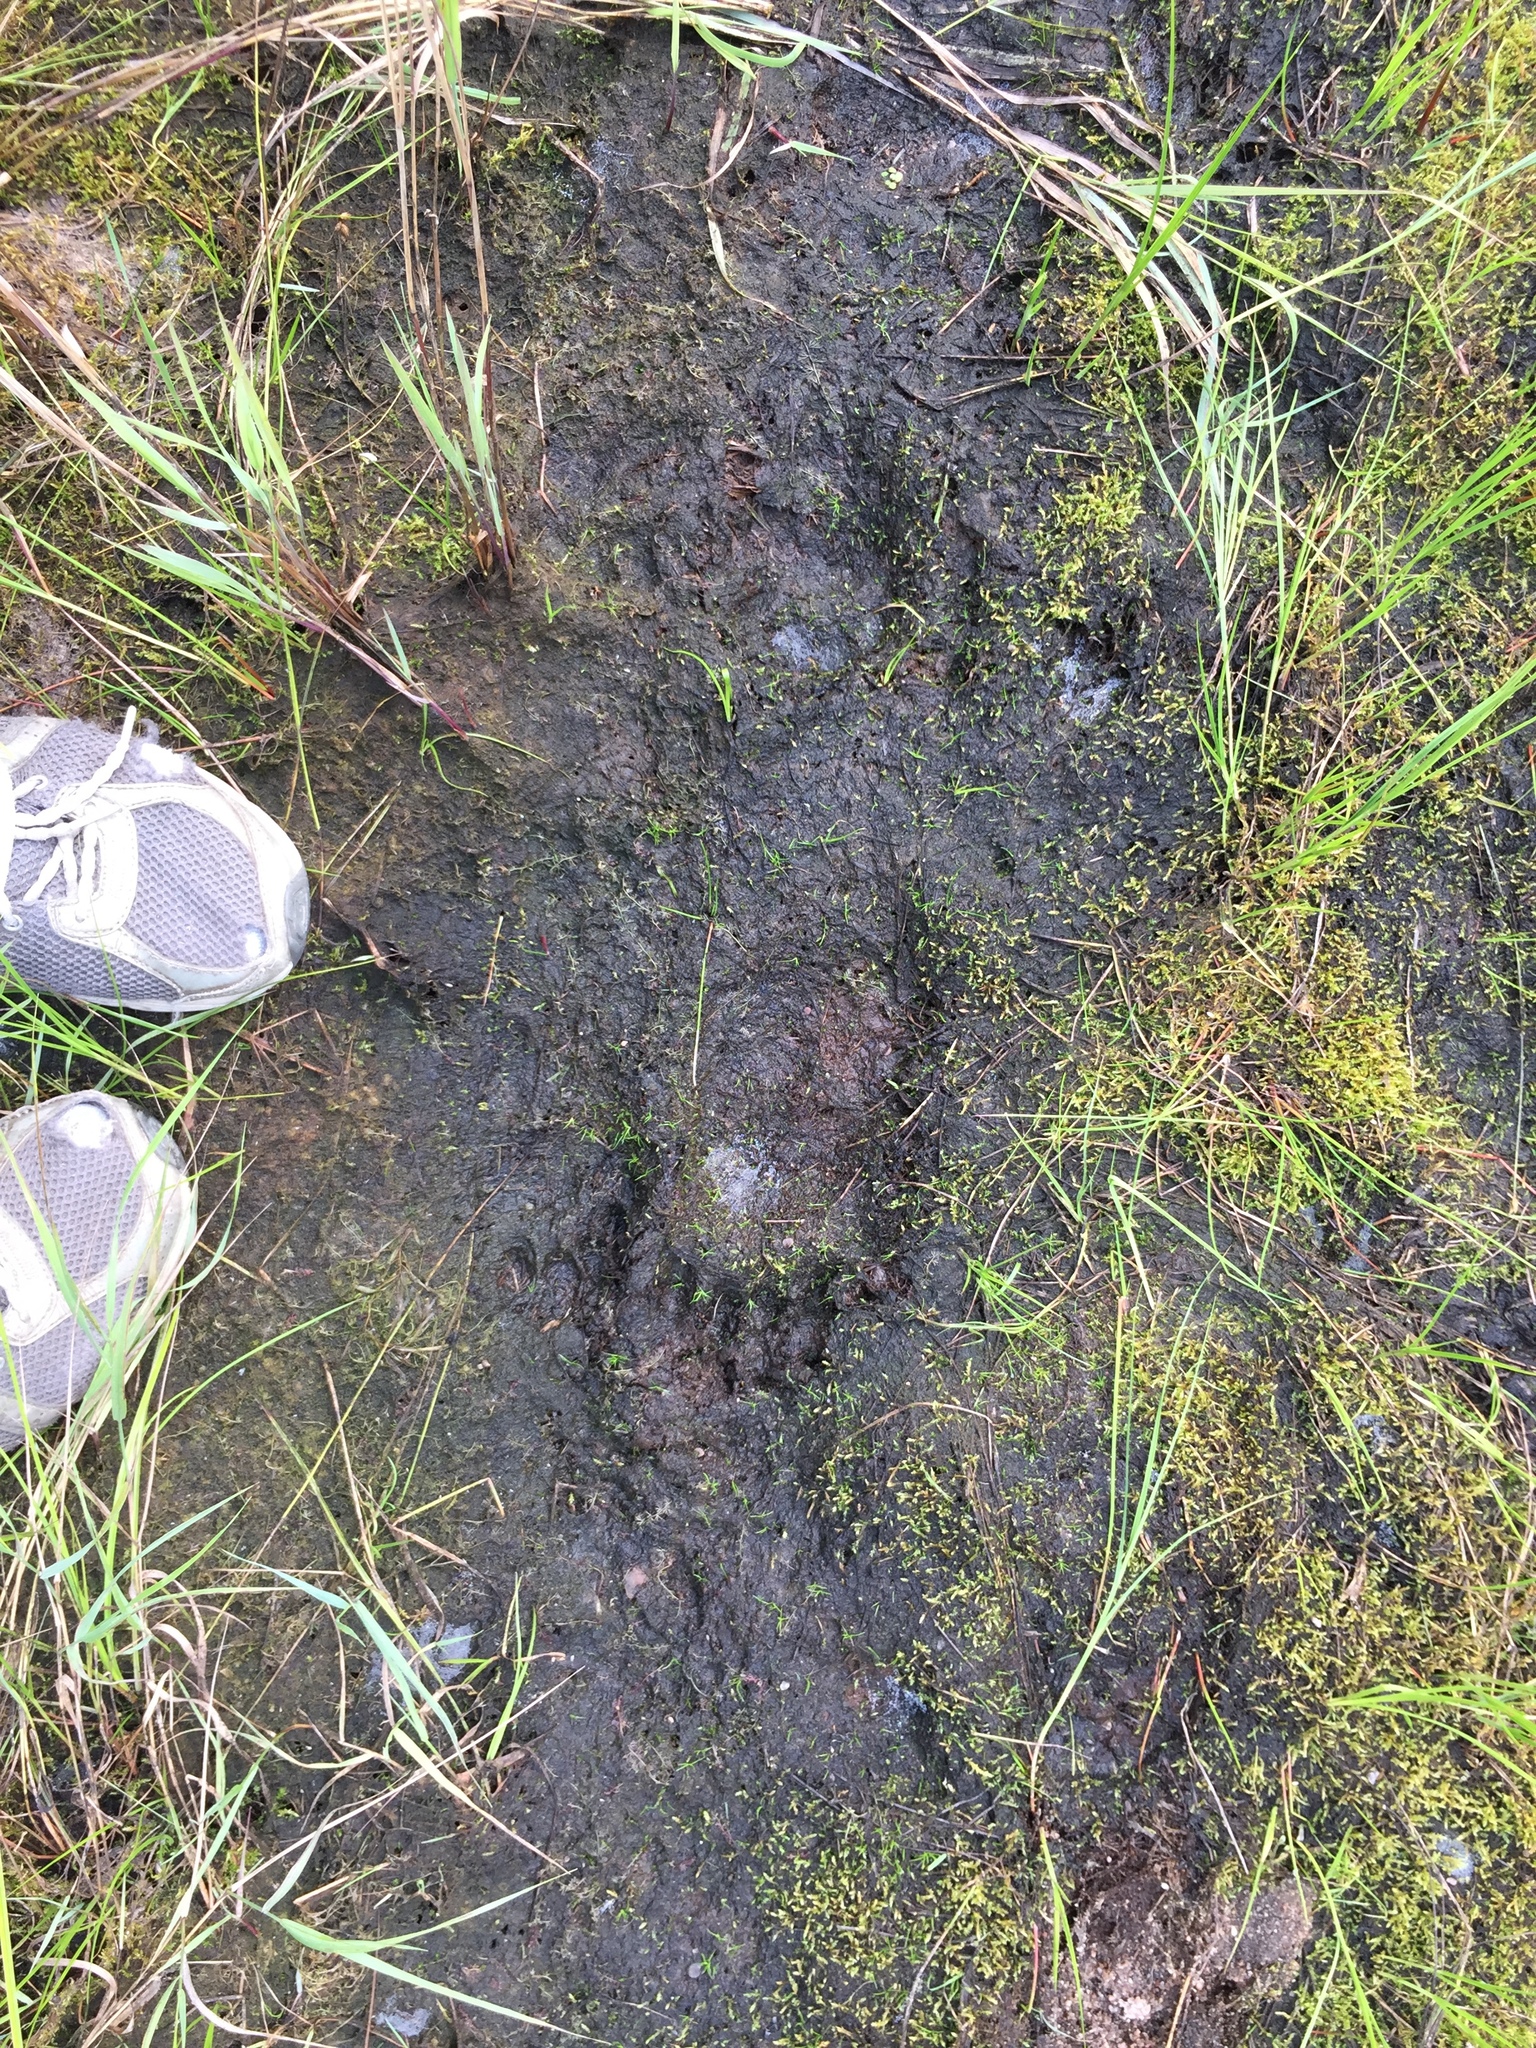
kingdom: Animalia
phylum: Chordata
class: Mammalia
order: Carnivora
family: Ursidae
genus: Ursus
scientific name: Ursus americanus
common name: American black bear
